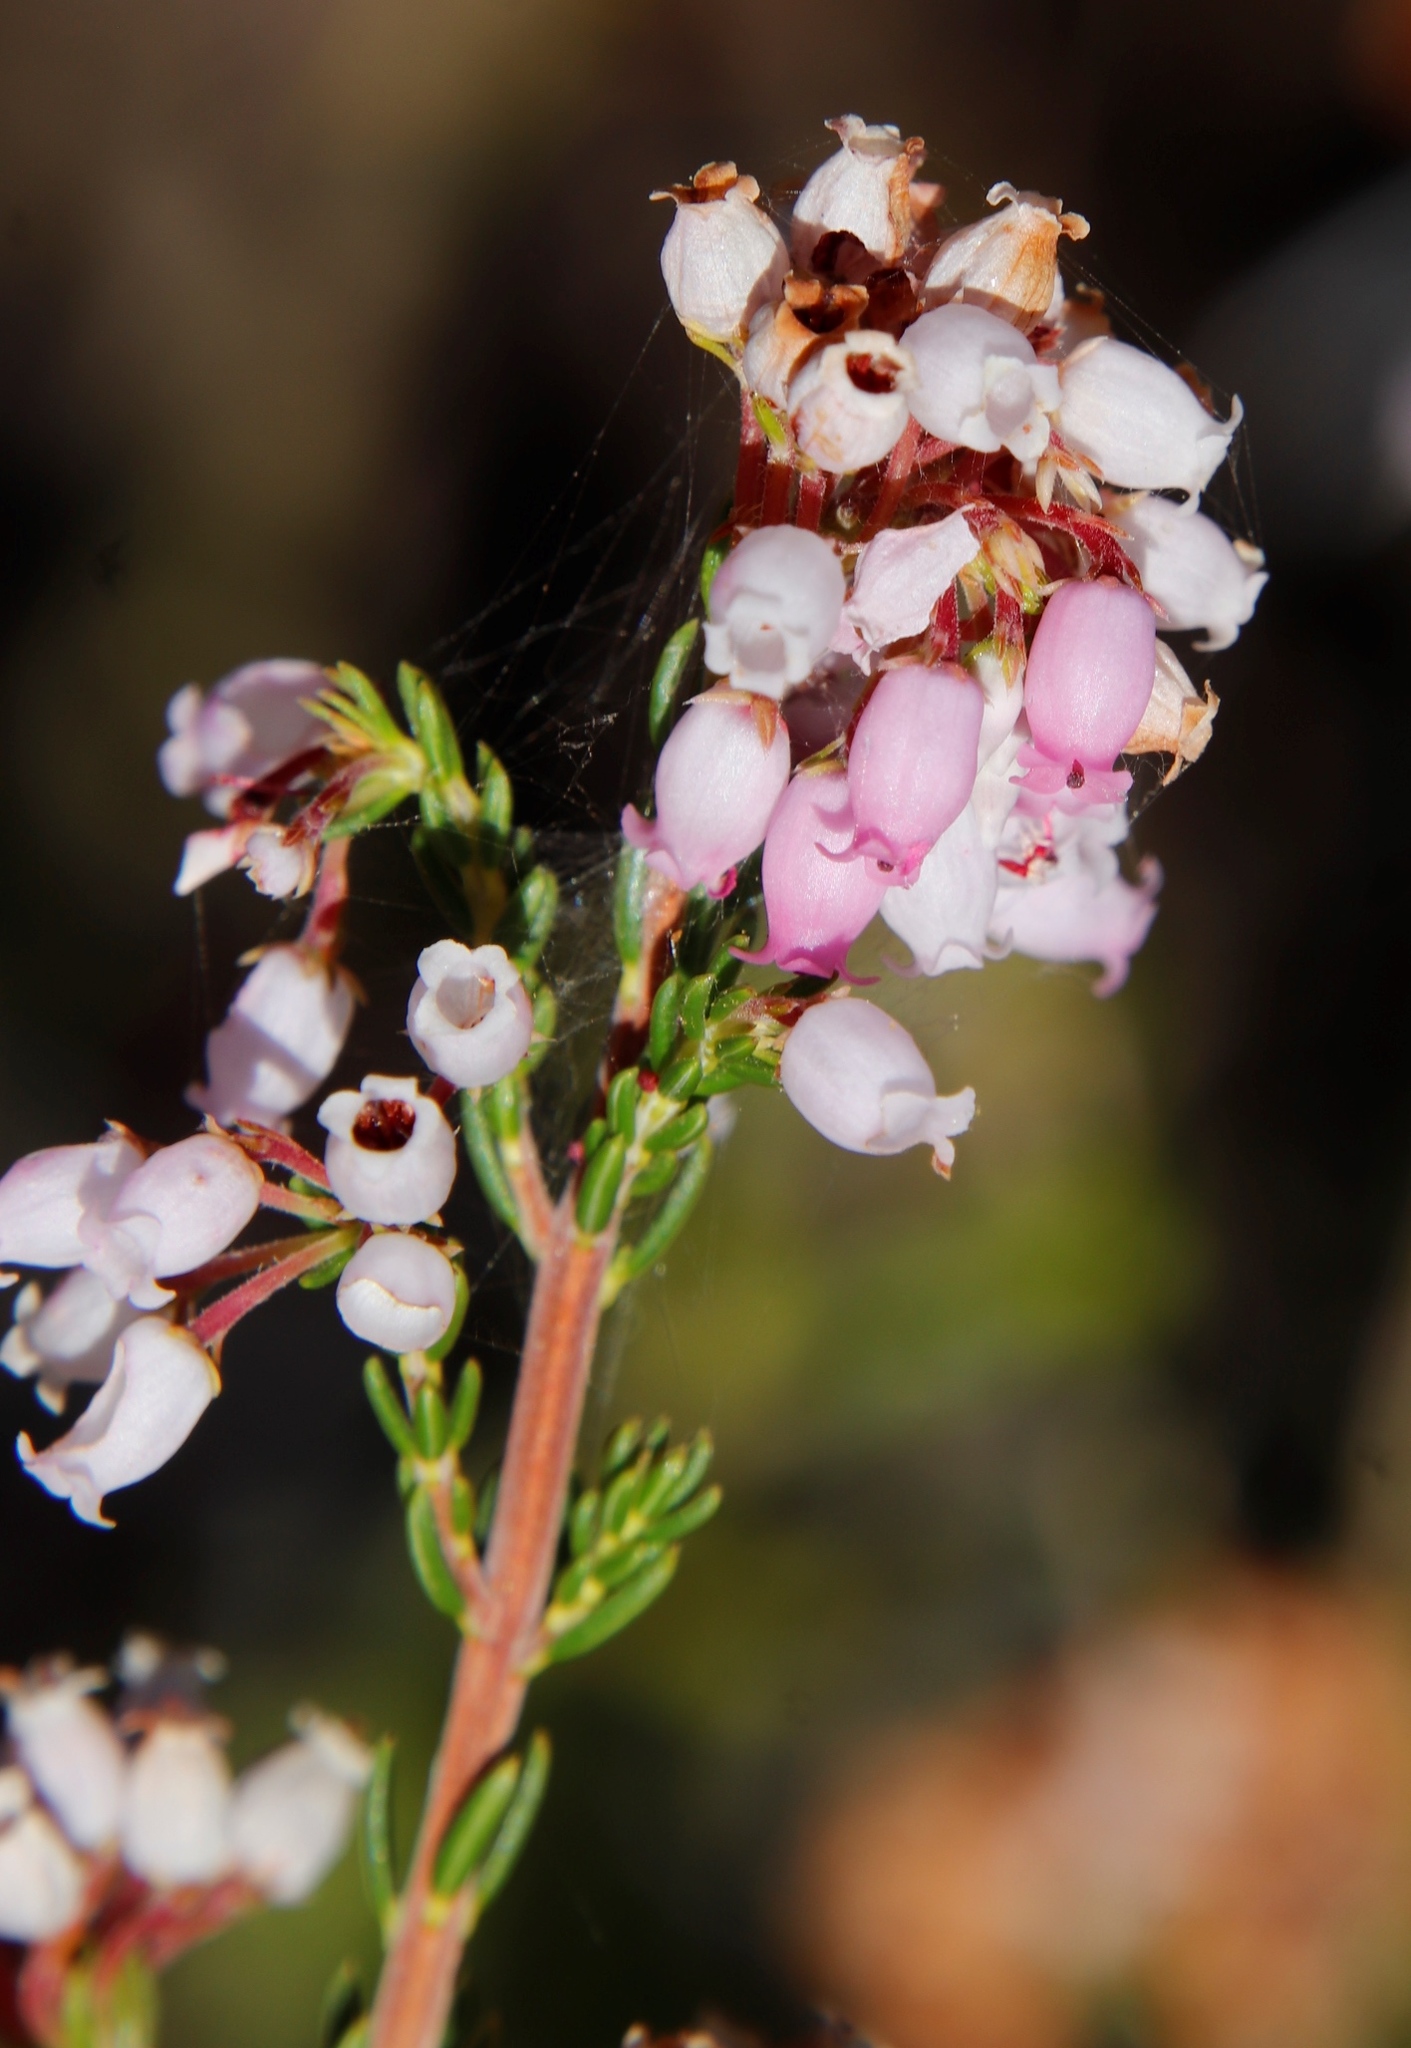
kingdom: Plantae
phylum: Tracheophyta
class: Magnoliopsida
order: Ericales
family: Ericaceae
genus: Erica
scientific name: Erica verecunda
